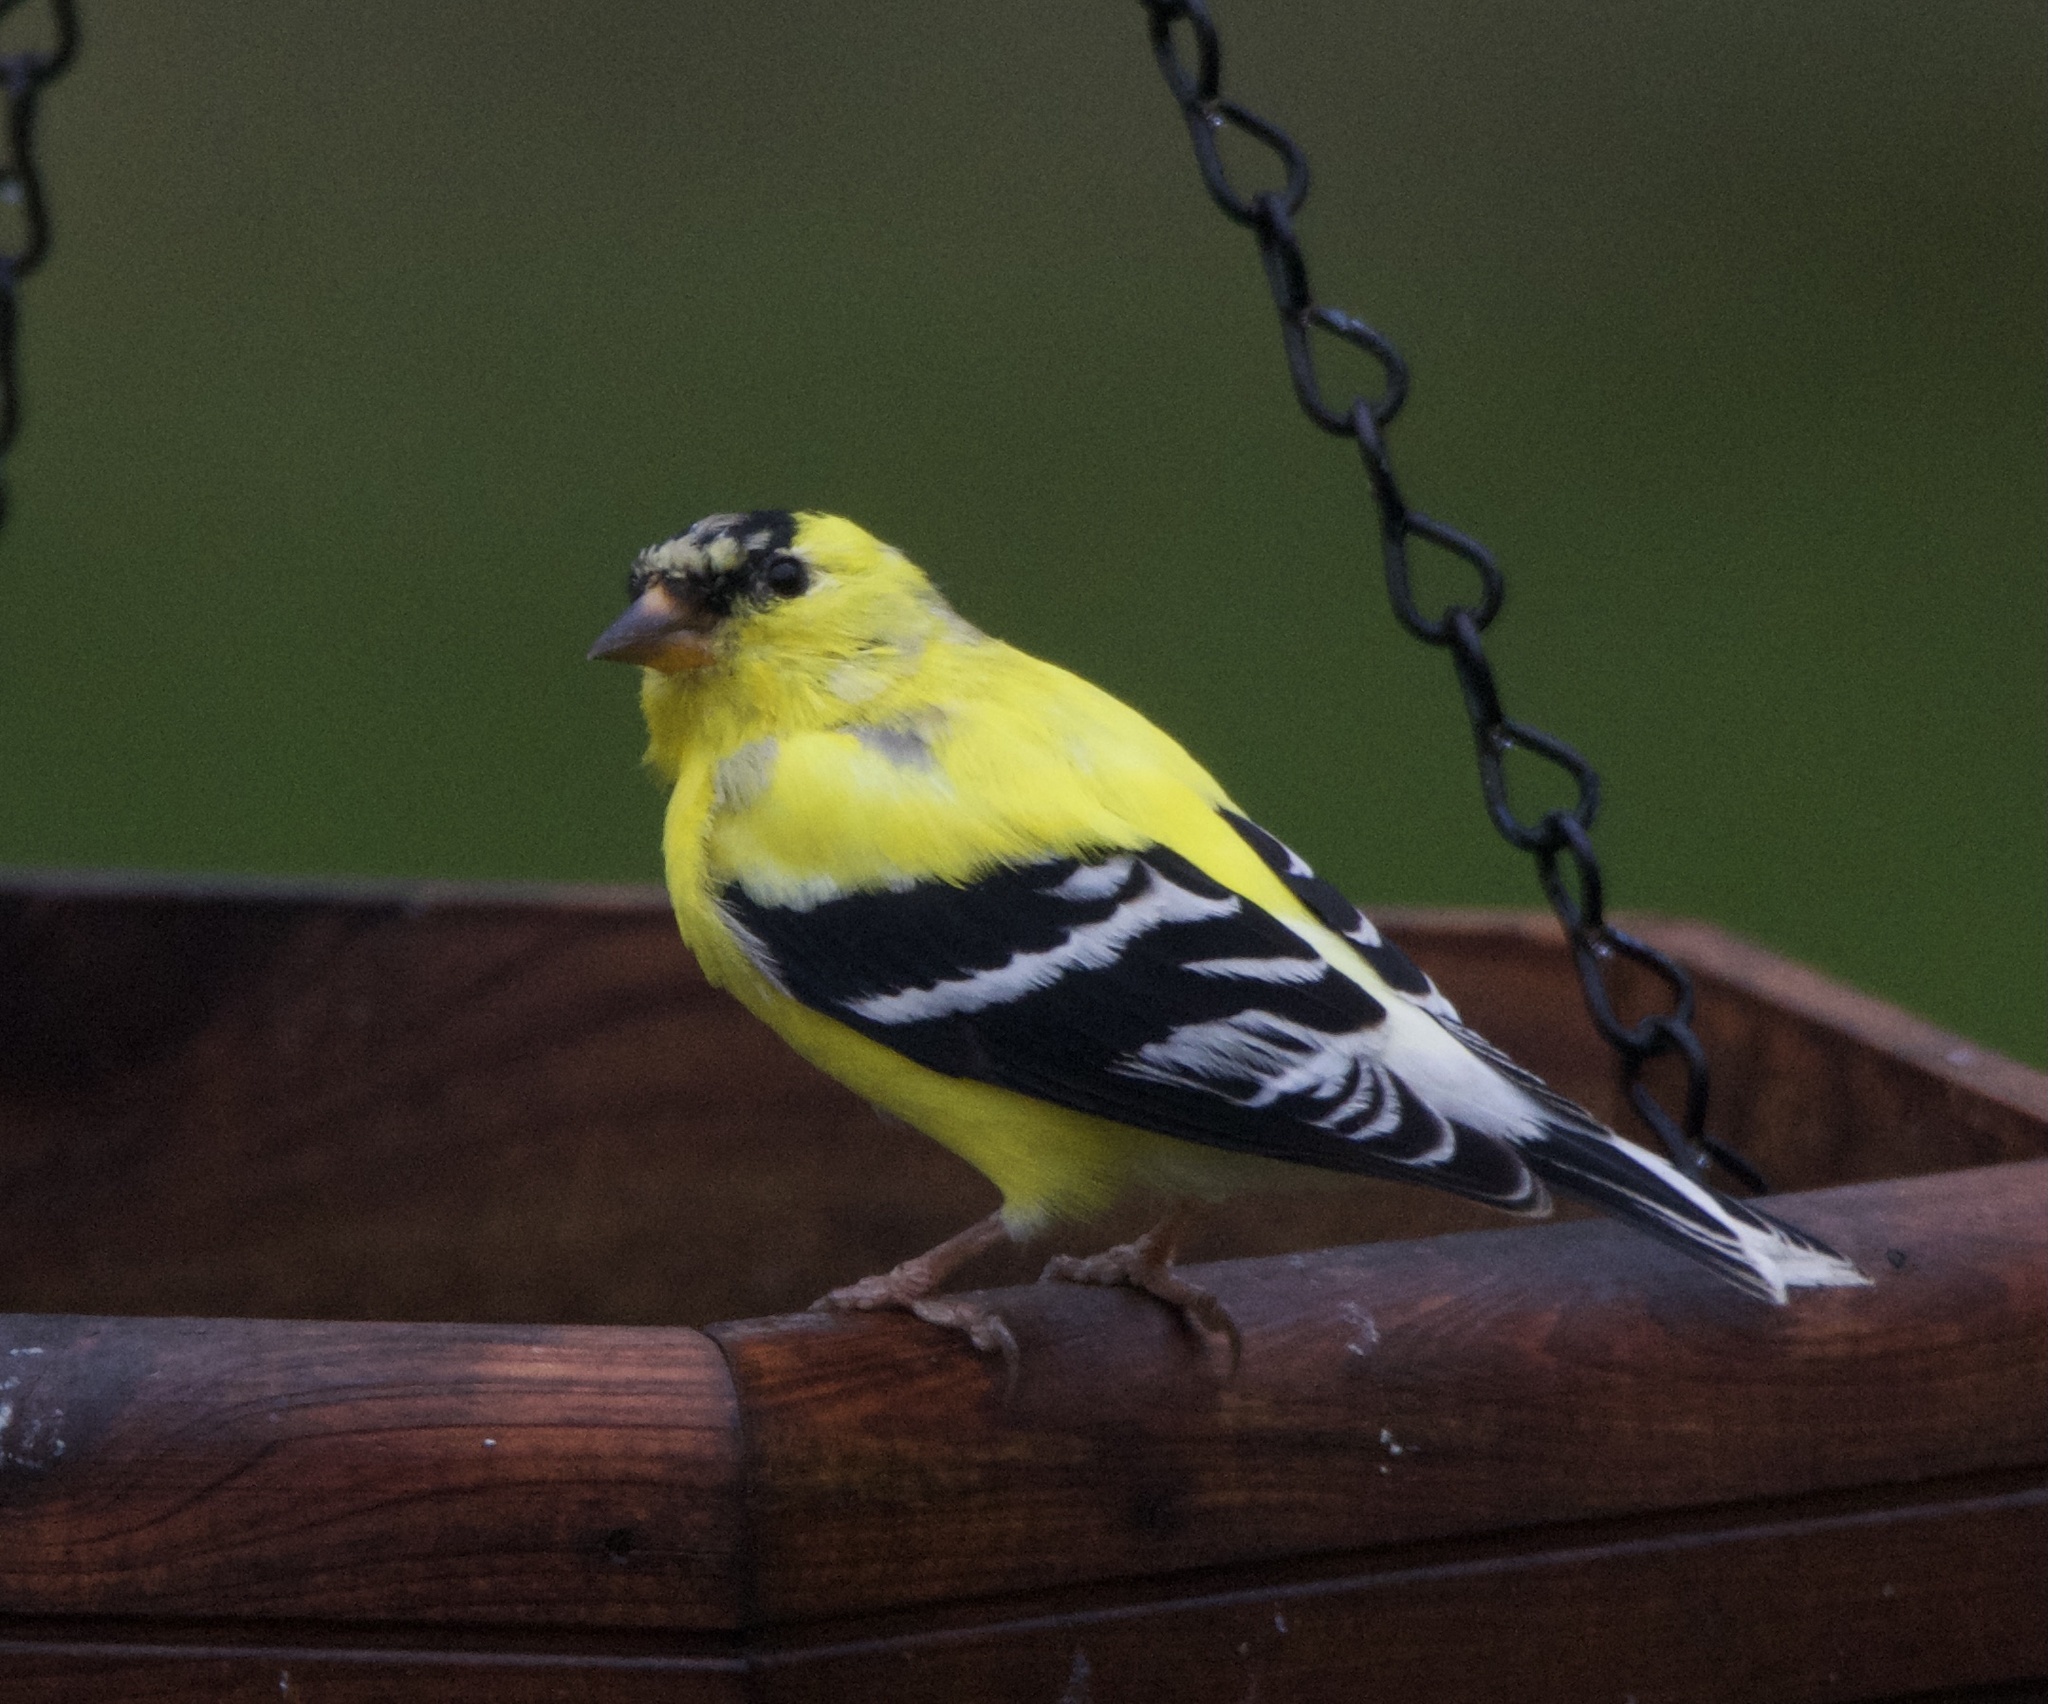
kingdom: Animalia
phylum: Chordata
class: Aves
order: Passeriformes
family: Fringillidae
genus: Spinus
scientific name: Spinus tristis
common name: American goldfinch
